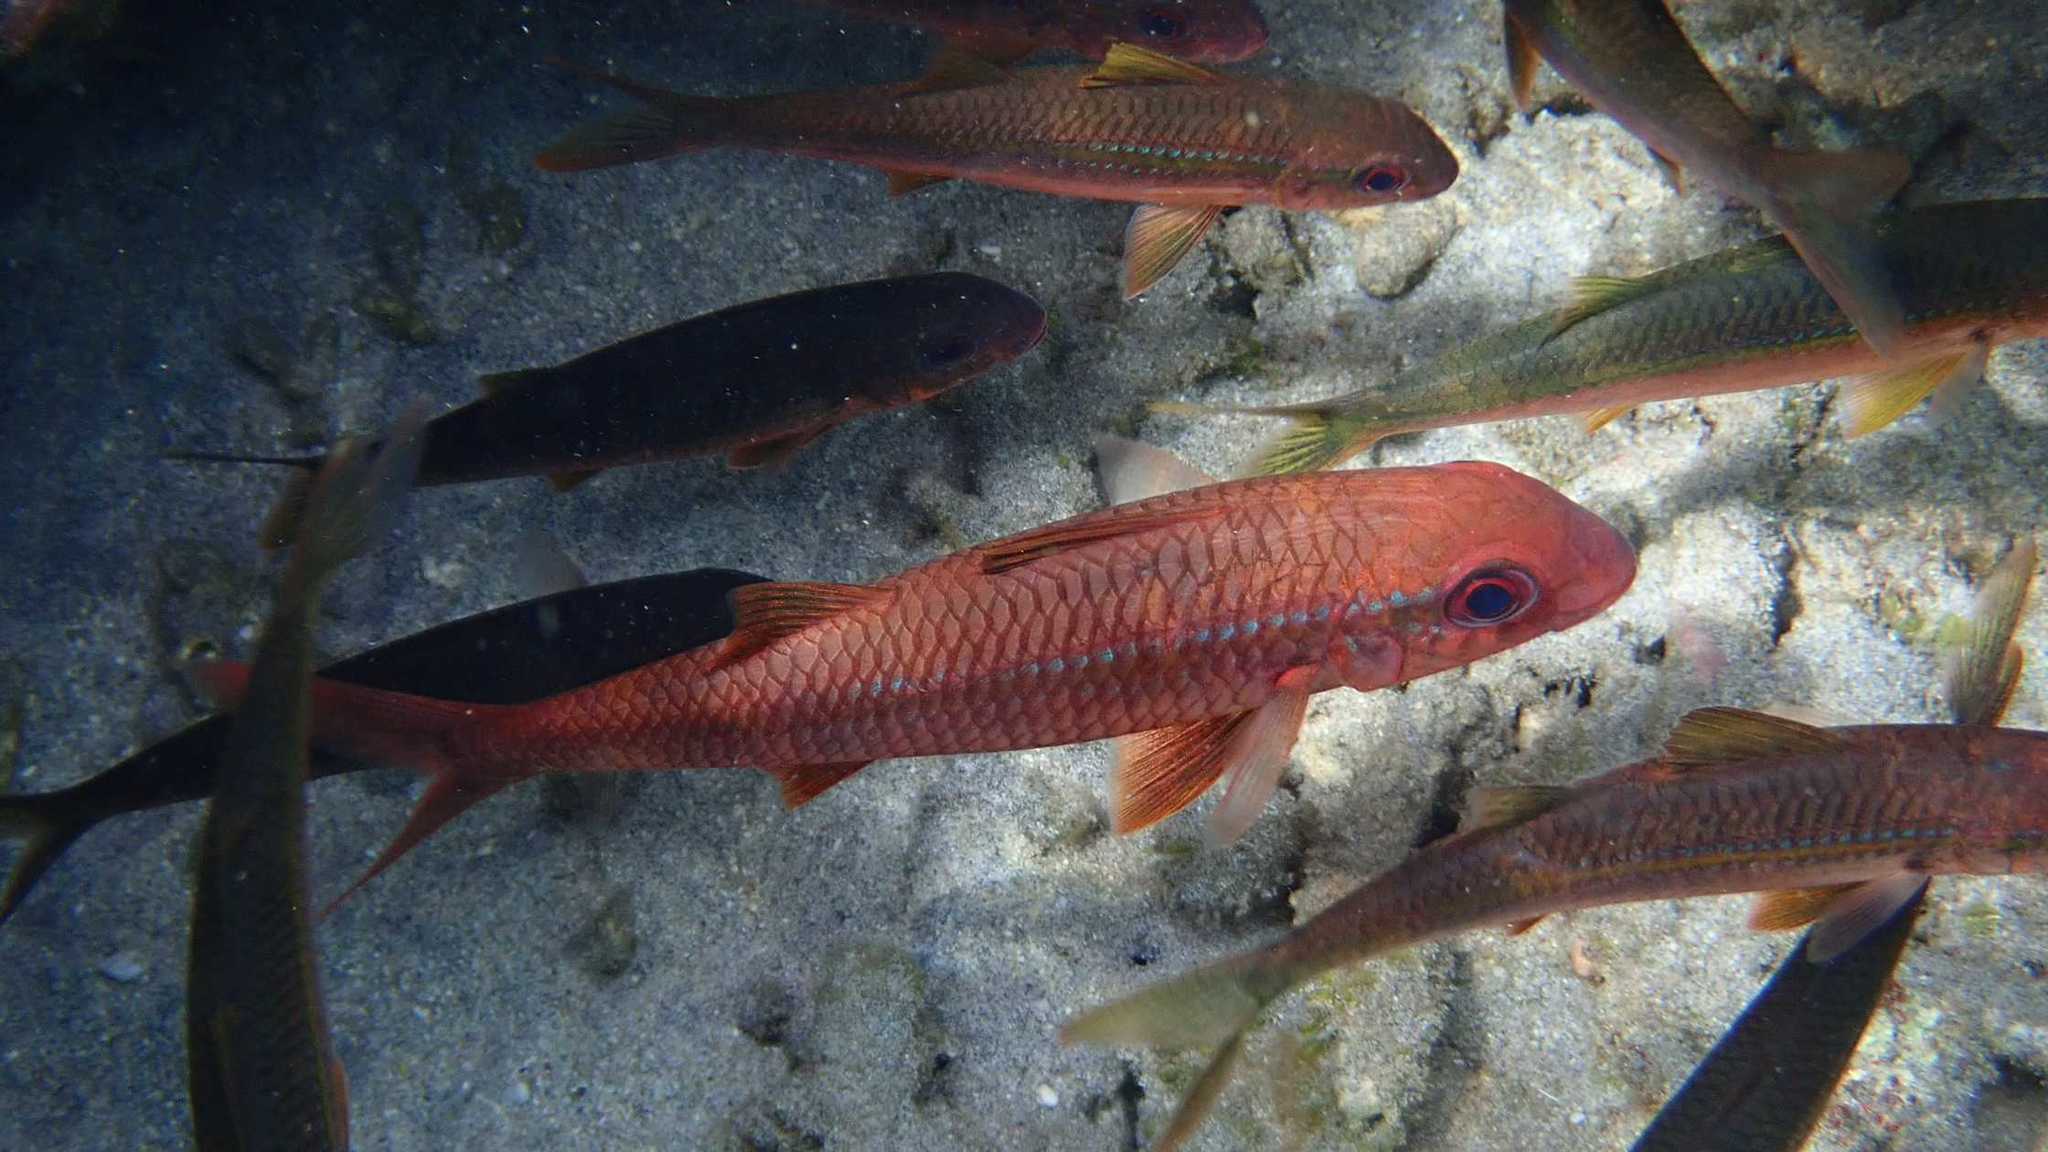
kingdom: Animalia
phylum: Chordata
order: Perciformes
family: Mullidae
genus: Mulloidichthys
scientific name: Mulloidichthys vanicolensis
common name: Yellowfin goatfish
